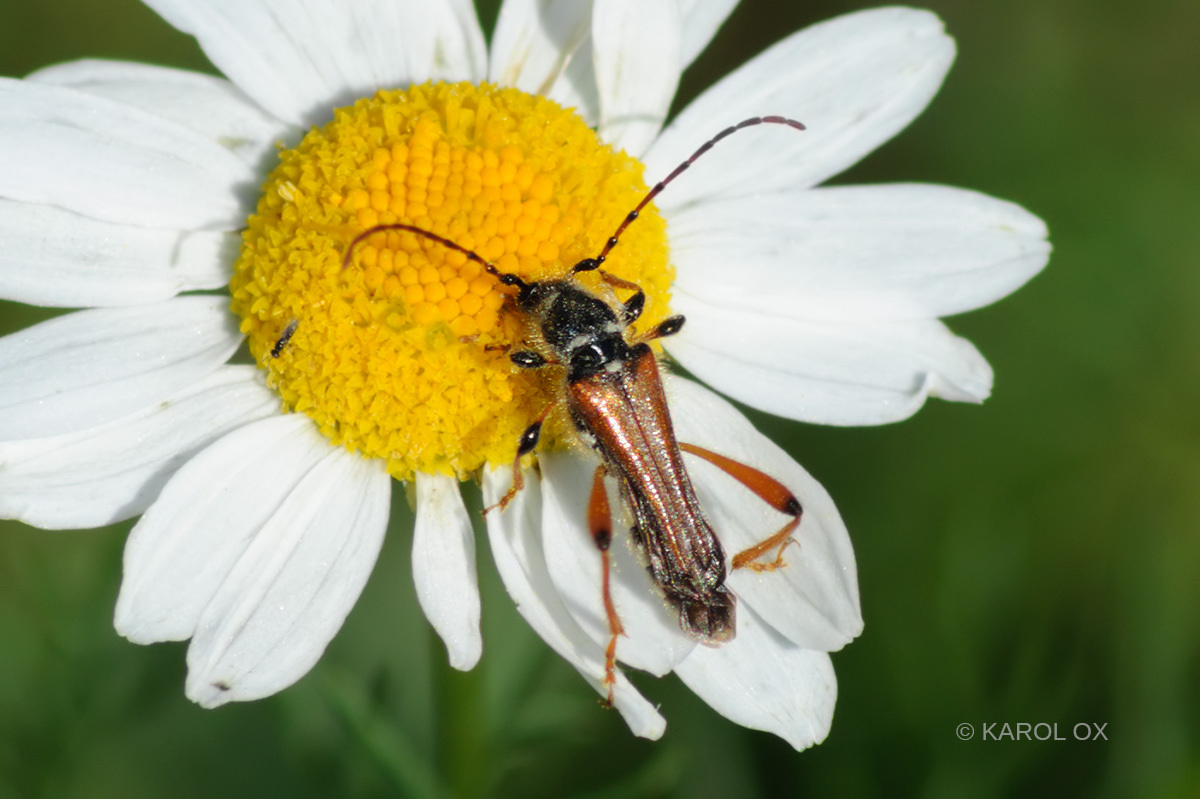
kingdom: Animalia
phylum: Arthropoda
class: Insecta
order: Coleoptera
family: Cerambycidae
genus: Stenopterus
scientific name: Stenopterus rufus
